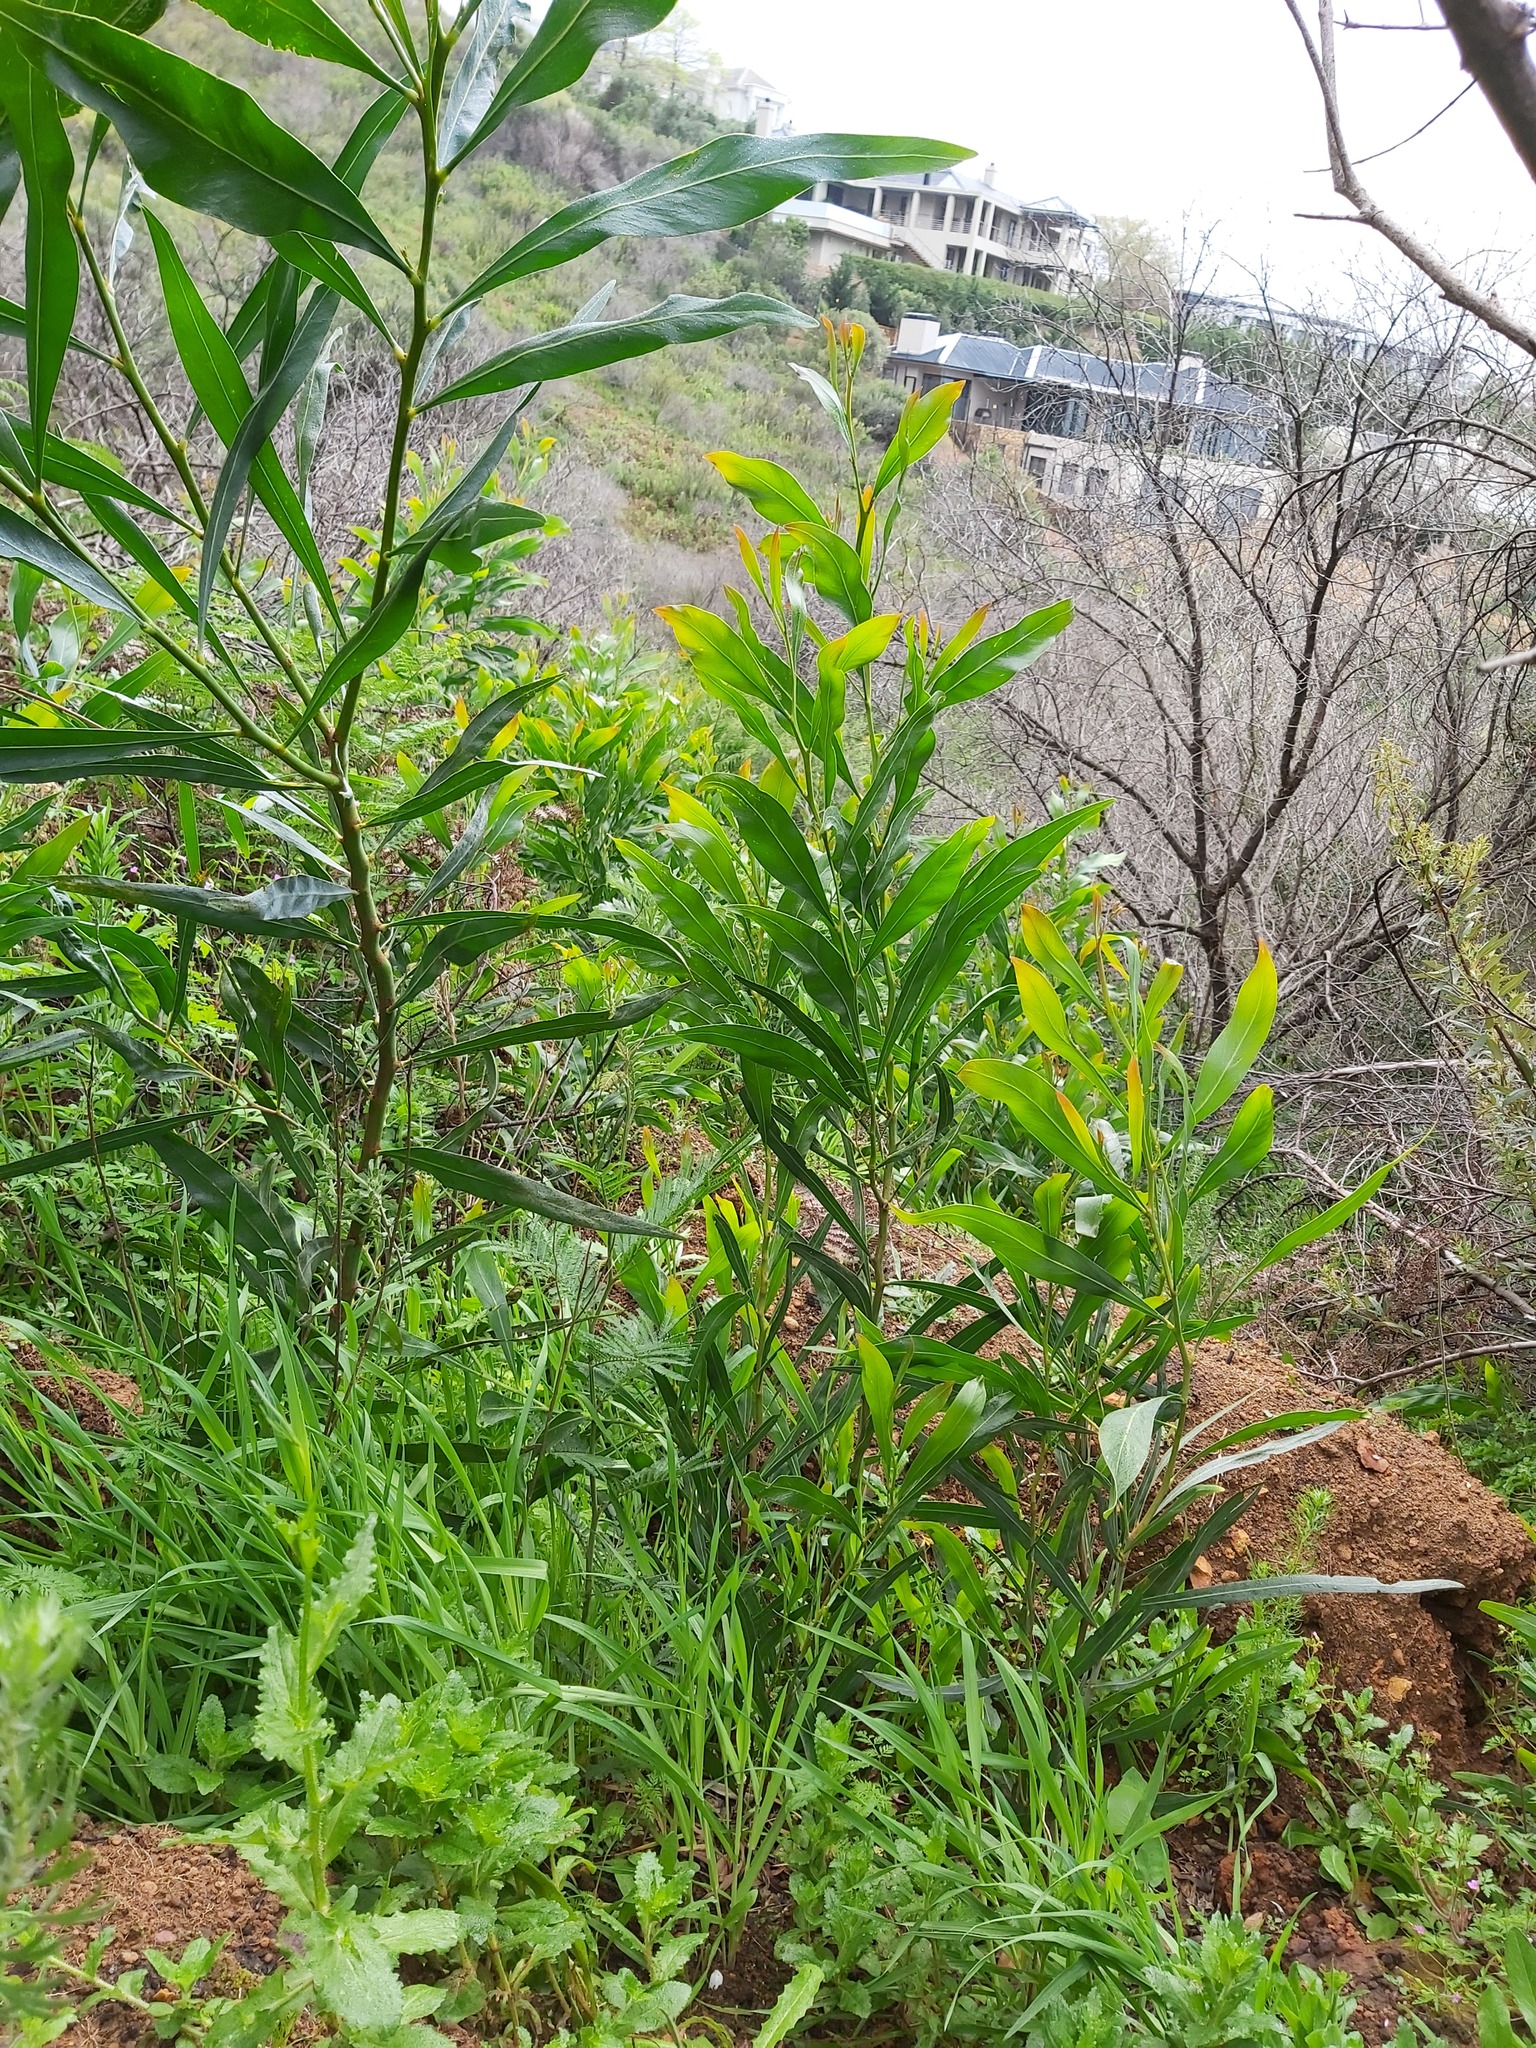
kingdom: Plantae
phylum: Tracheophyta
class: Magnoliopsida
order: Fabales
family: Fabaceae
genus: Acacia
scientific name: Acacia saligna
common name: Orange wattle
